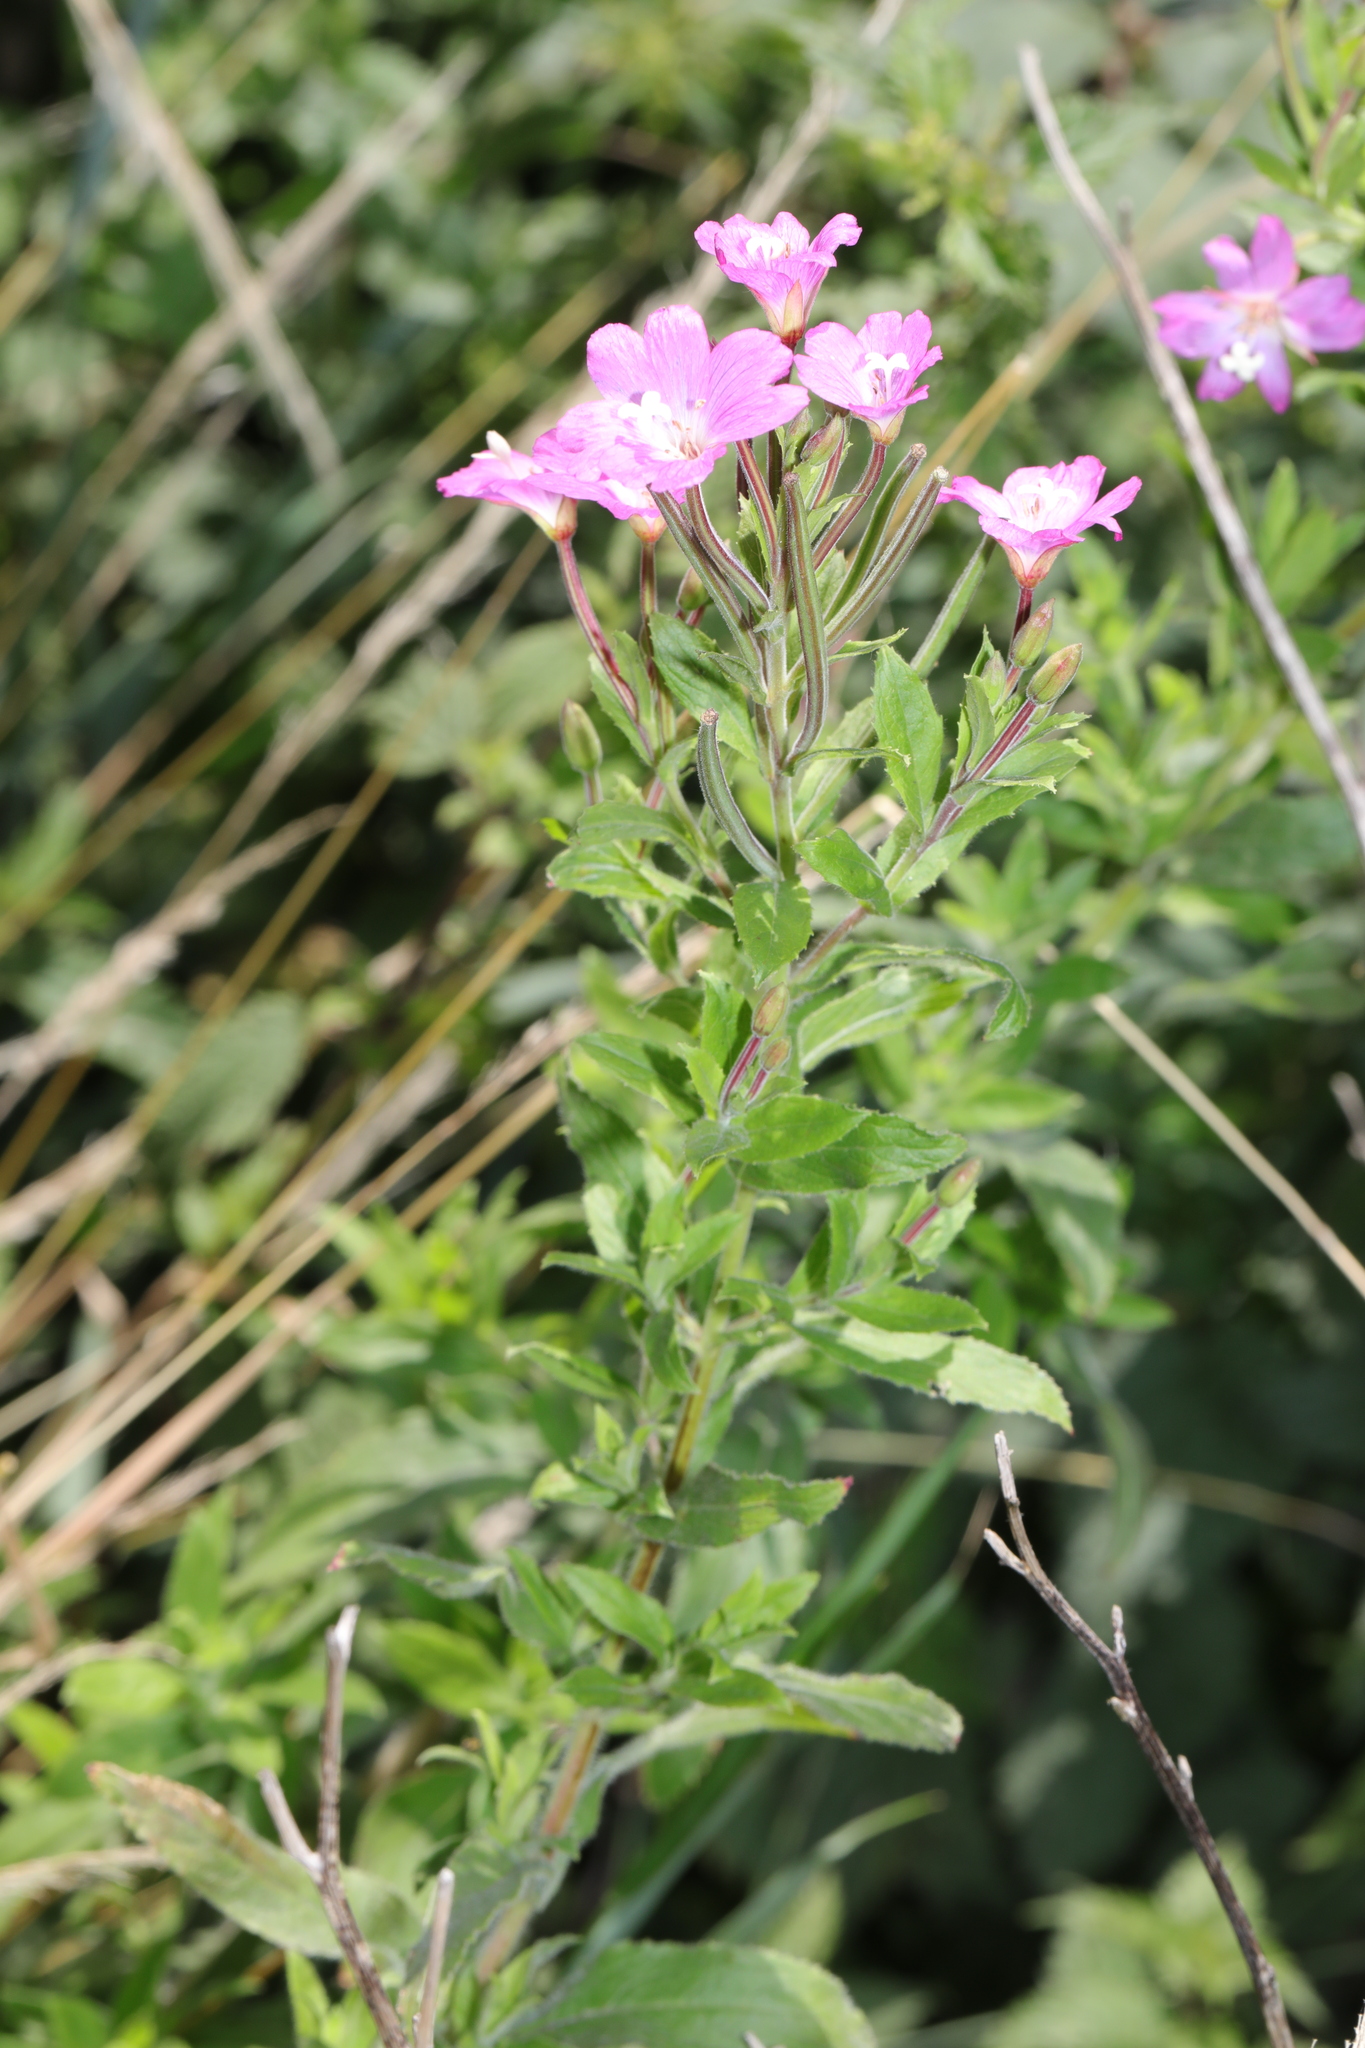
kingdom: Plantae
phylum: Tracheophyta
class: Magnoliopsida
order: Myrtales
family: Onagraceae
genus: Epilobium
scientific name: Epilobium hirsutum
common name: Great willowherb
